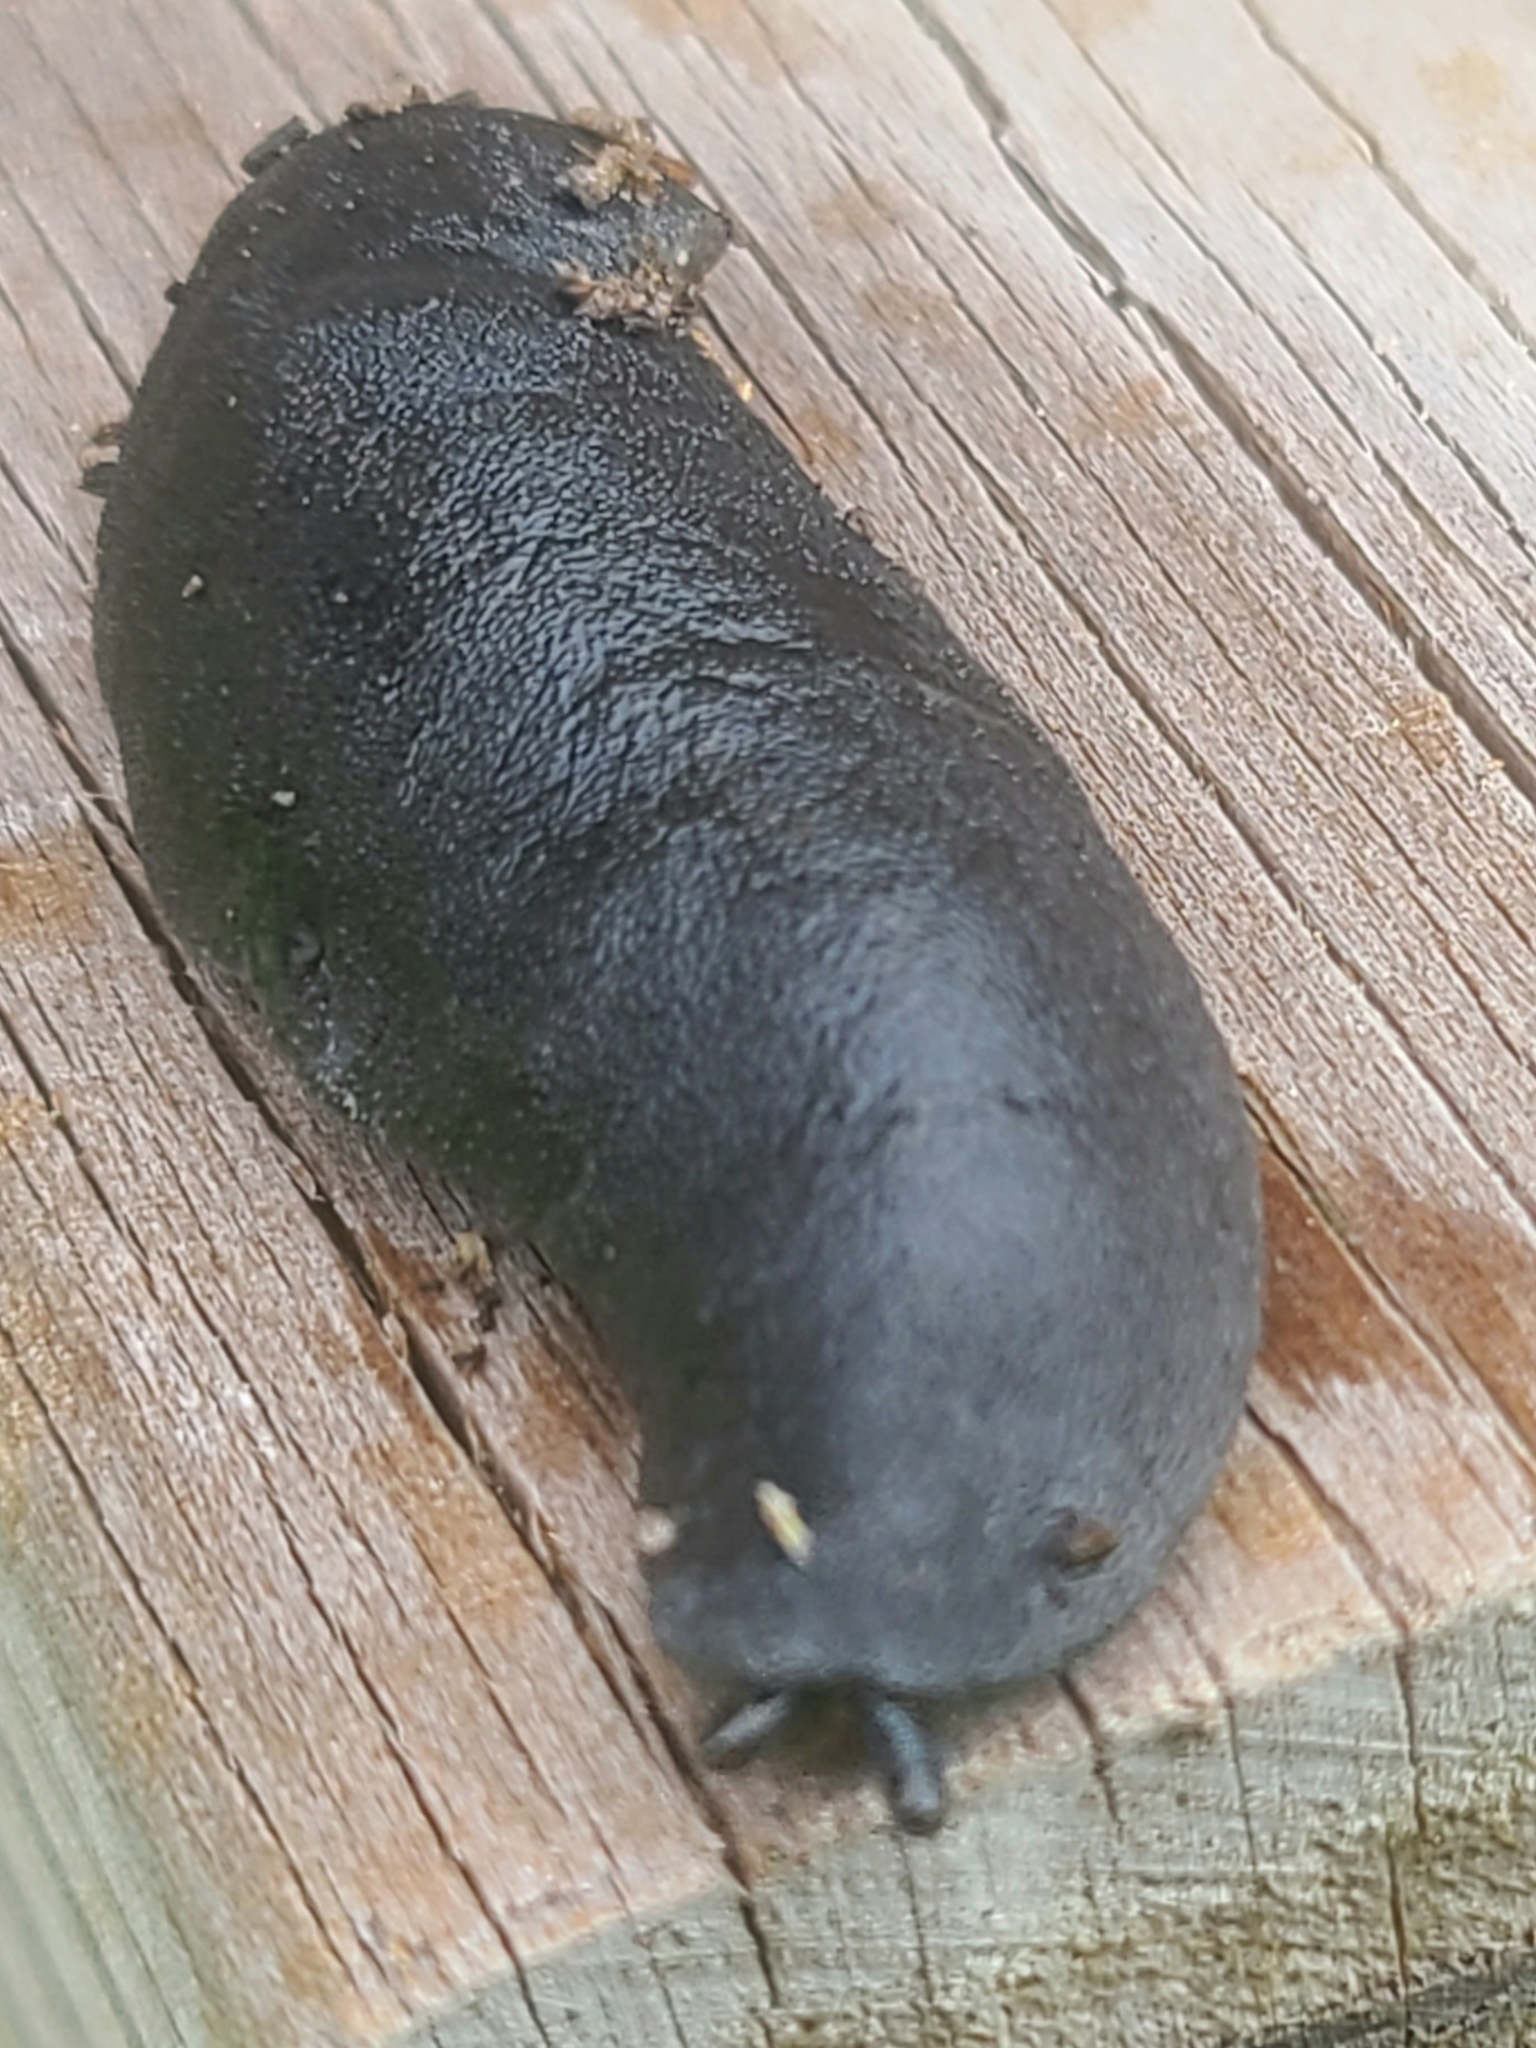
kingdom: Animalia
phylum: Mollusca
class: Gastropoda
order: Systellommatophora
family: Veronicellidae
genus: Belocaulus
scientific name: Belocaulus angustipes
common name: Black velvet leatherleaf slug
